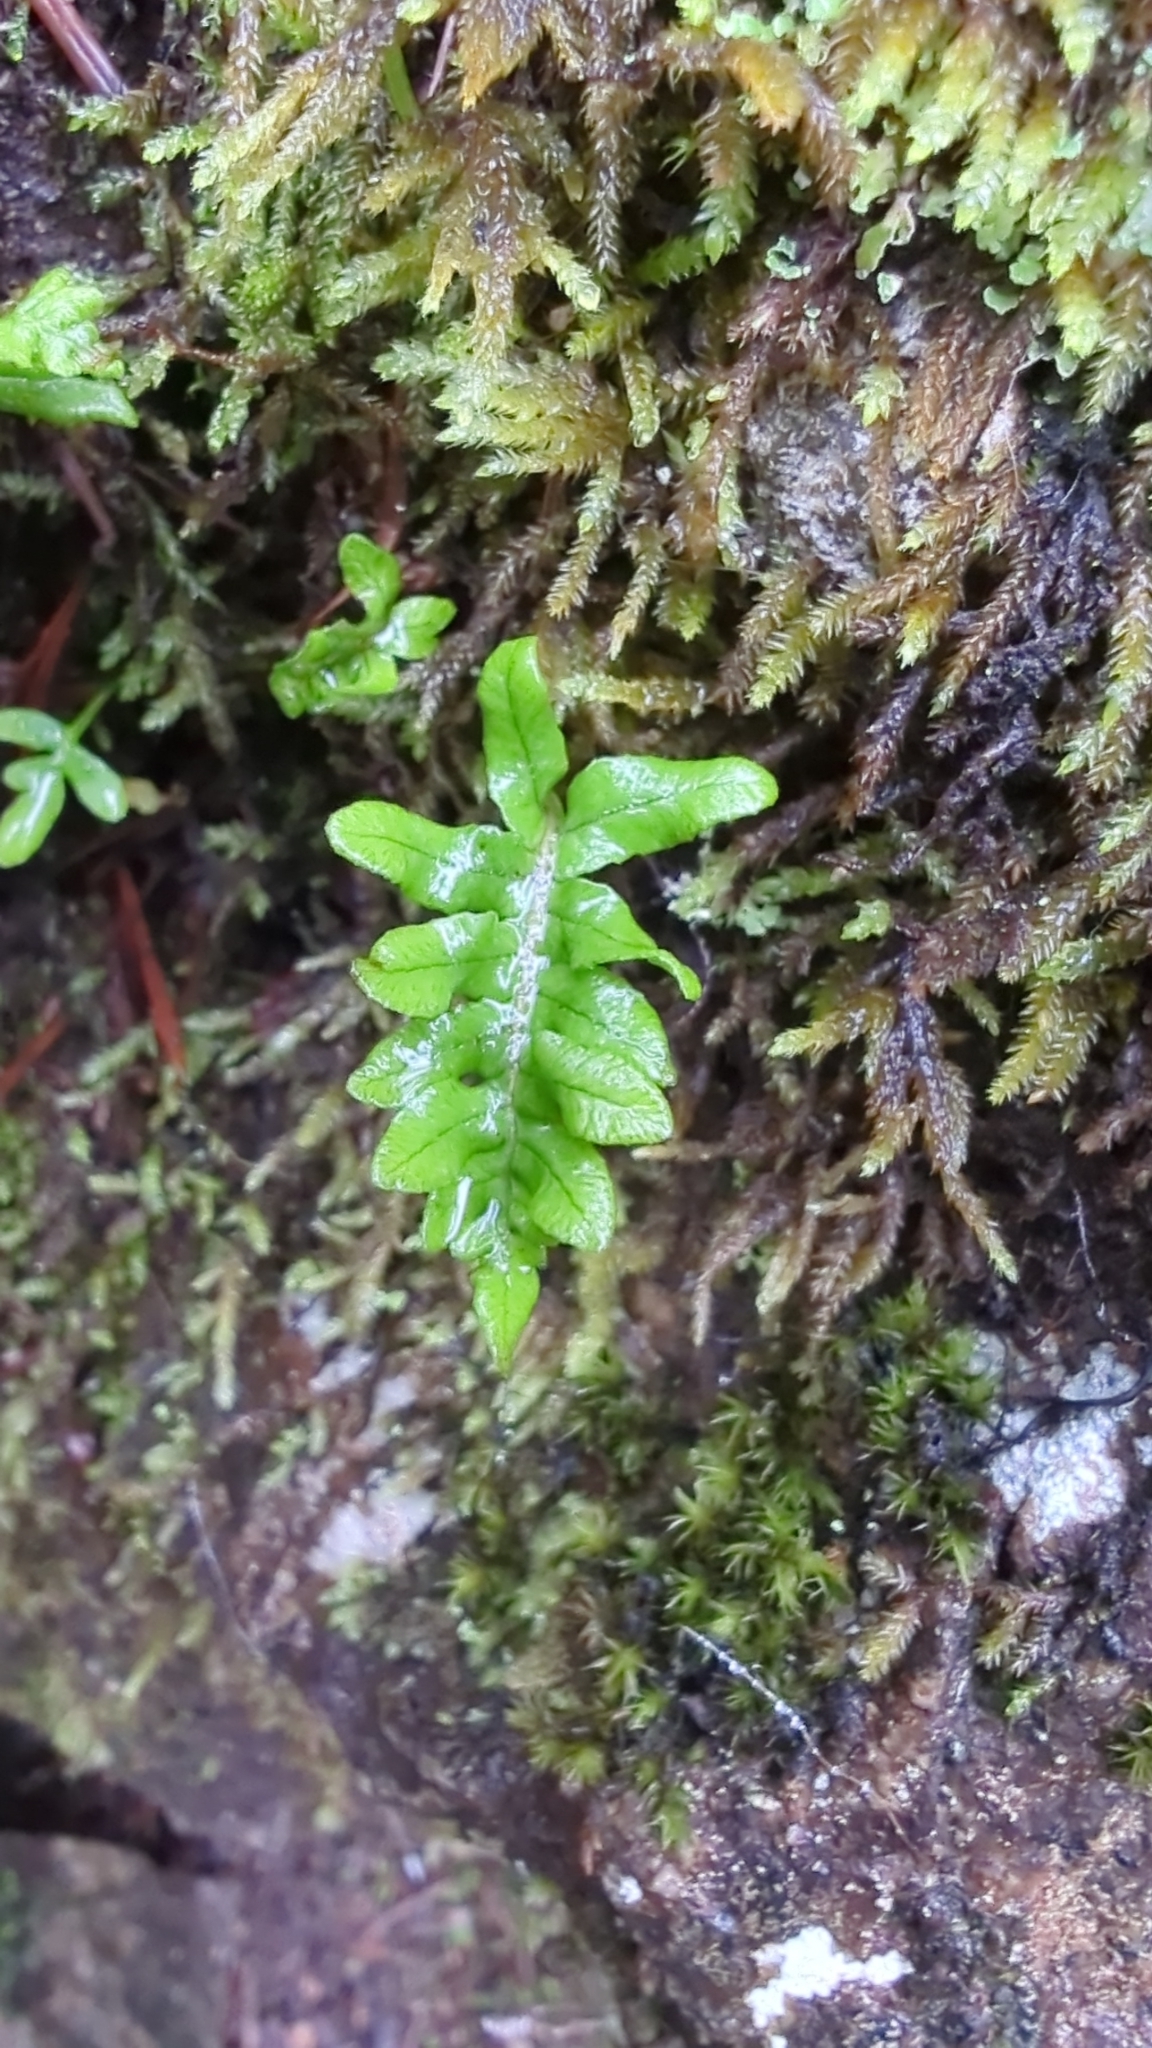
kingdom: Plantae
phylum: Tracheophyta
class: Polypodiopsida
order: Polypodiales
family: Polypodiaceae
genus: Polypodium
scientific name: Polypodium glycyrrhiza
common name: Licorice fern
